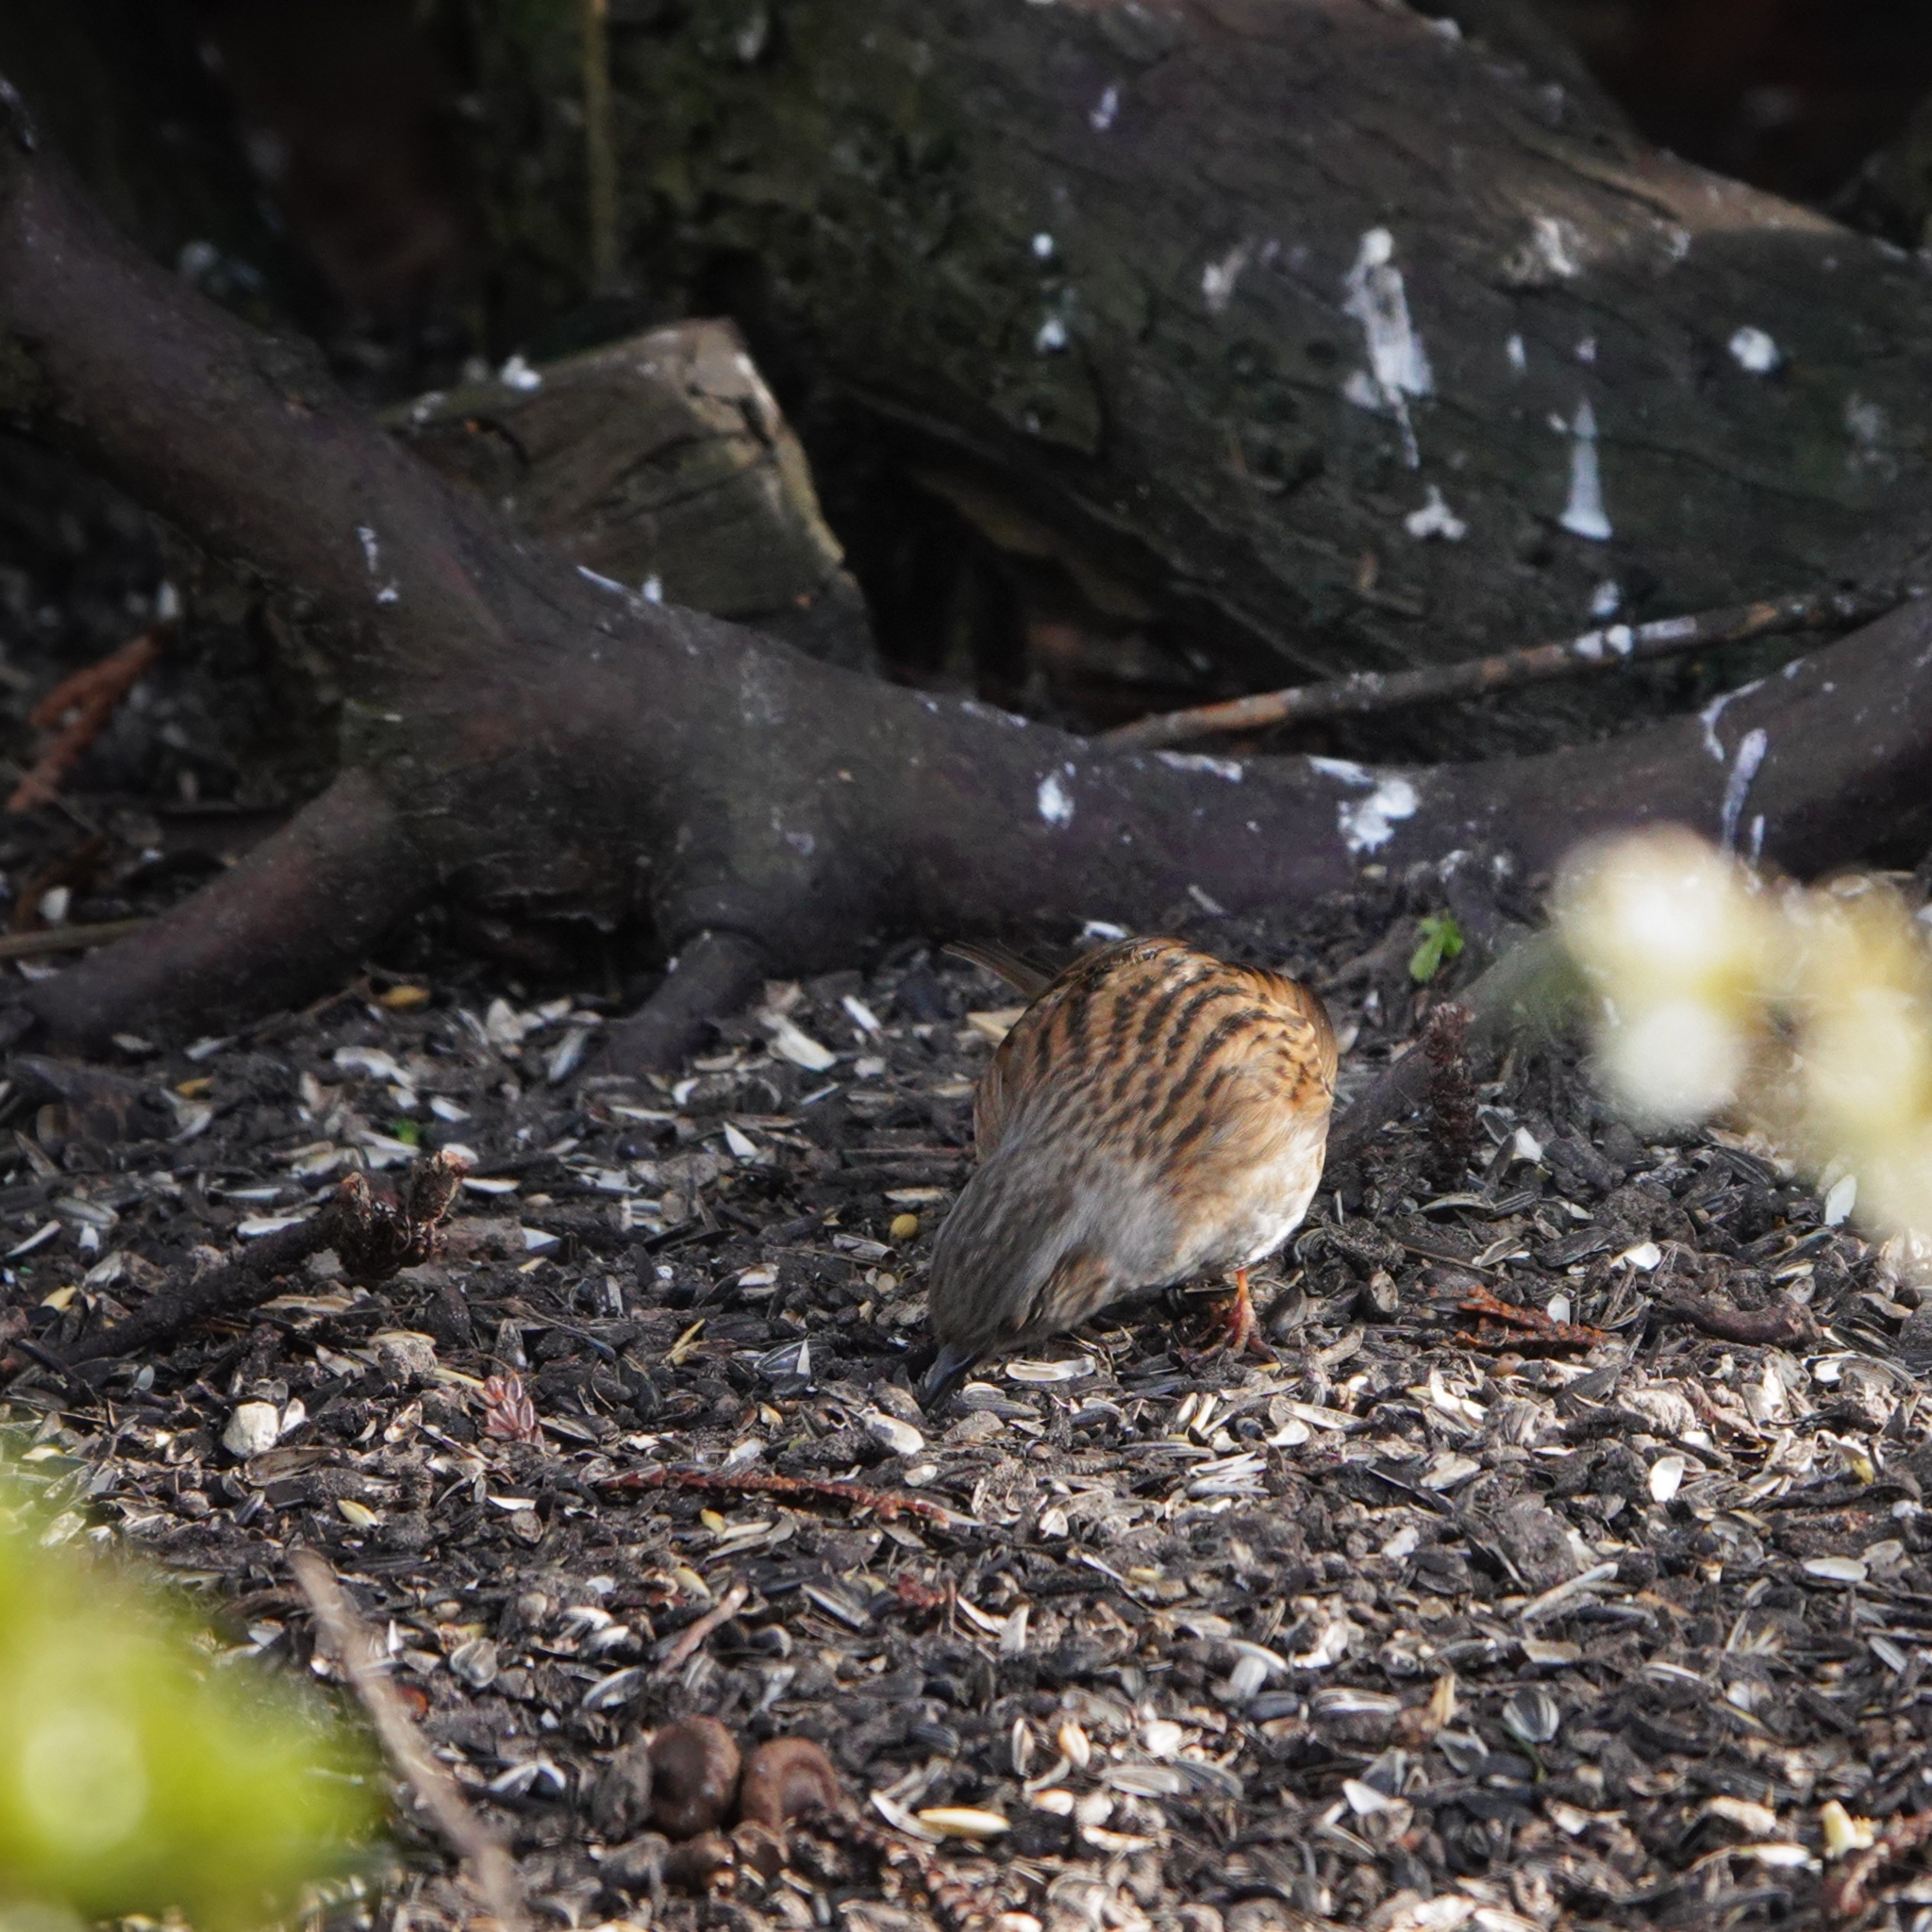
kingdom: Animalia
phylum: Chordata
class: Aves
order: Passeriformes
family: Prunellidae
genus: Prunella
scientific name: Prunella modularis
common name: Dunnock
